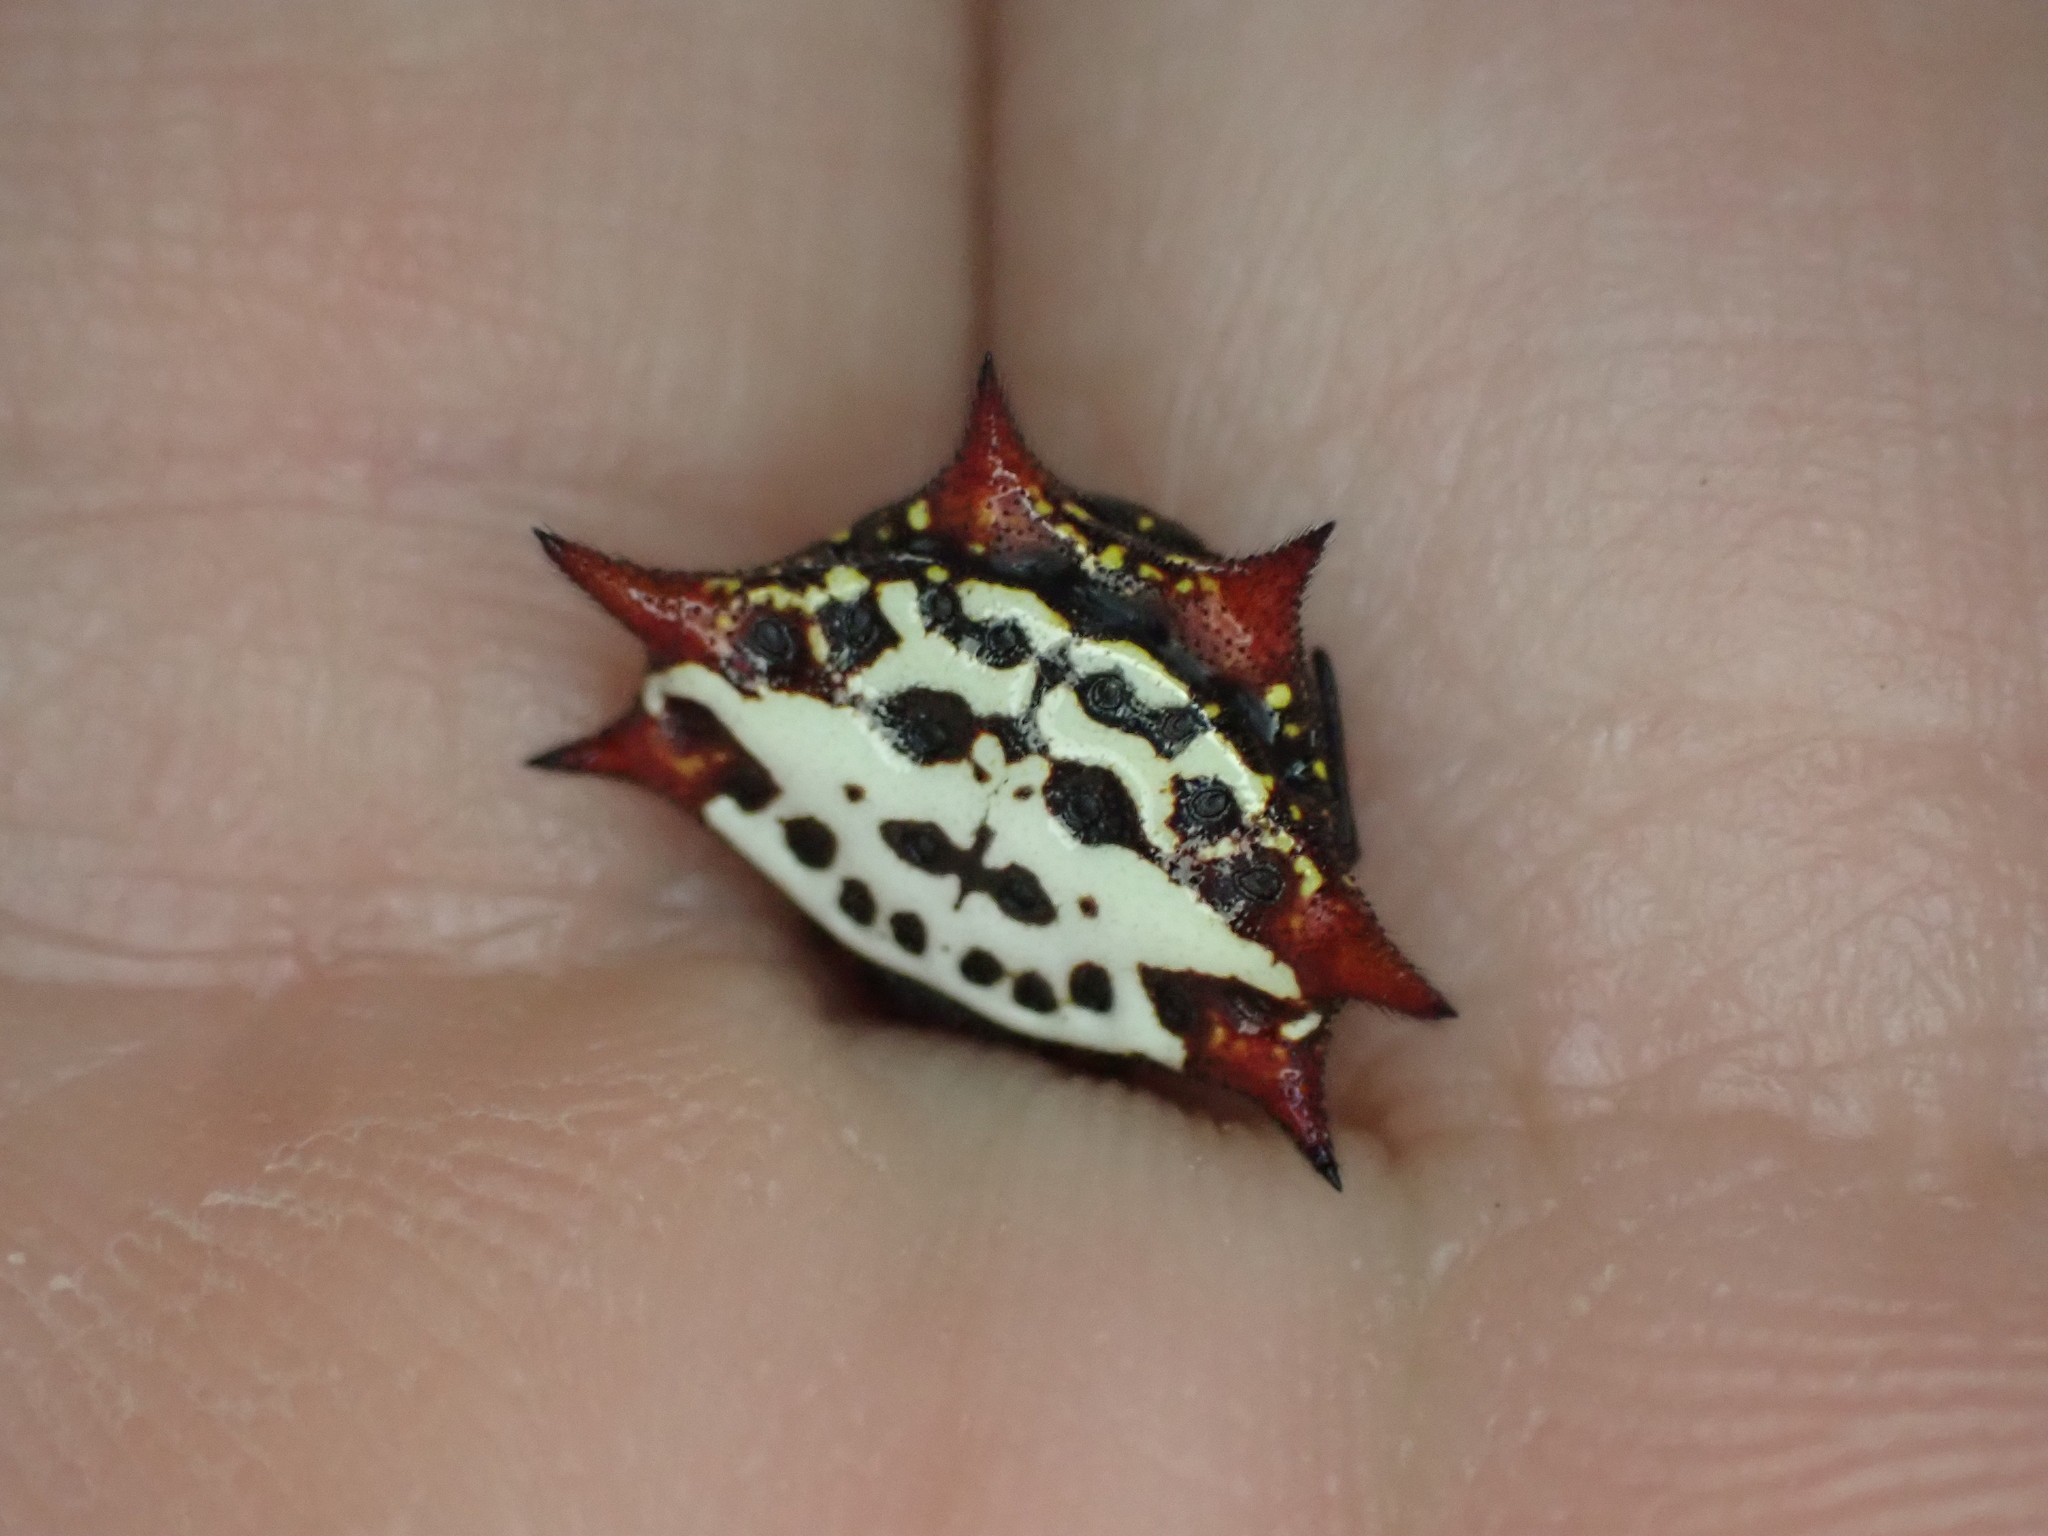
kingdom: Animalia
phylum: Arthropoda
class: Arachnida
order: Araneae
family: Araneidae
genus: Gasteracantha
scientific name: Gasteracantha cancriformis
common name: Orb weavers
